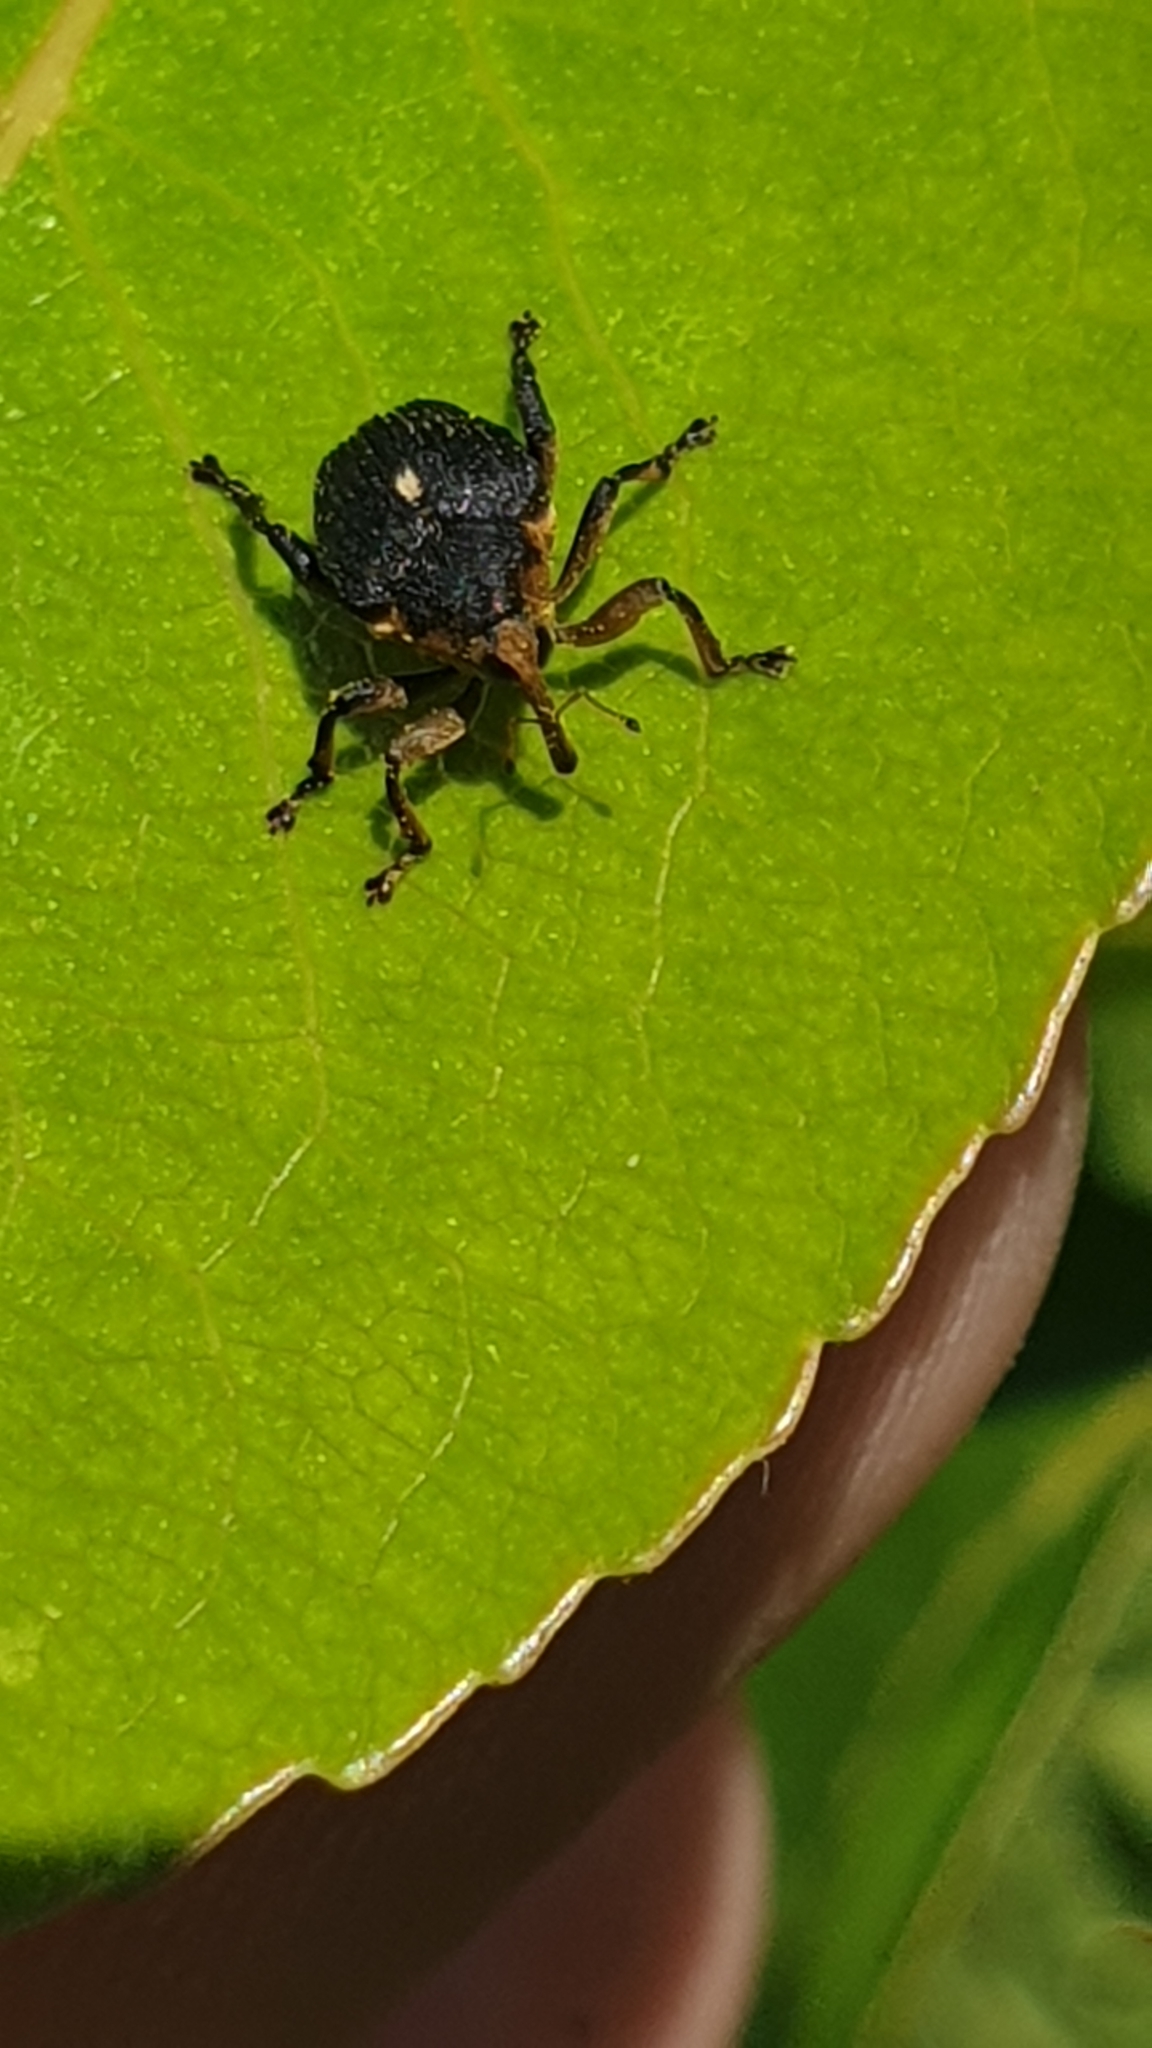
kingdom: Animalia
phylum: Arthropoda
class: Insecta
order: Coleoptera
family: Curculionidae
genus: Mononychus
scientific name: Mononychus punctumalbum
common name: Iris weevil
